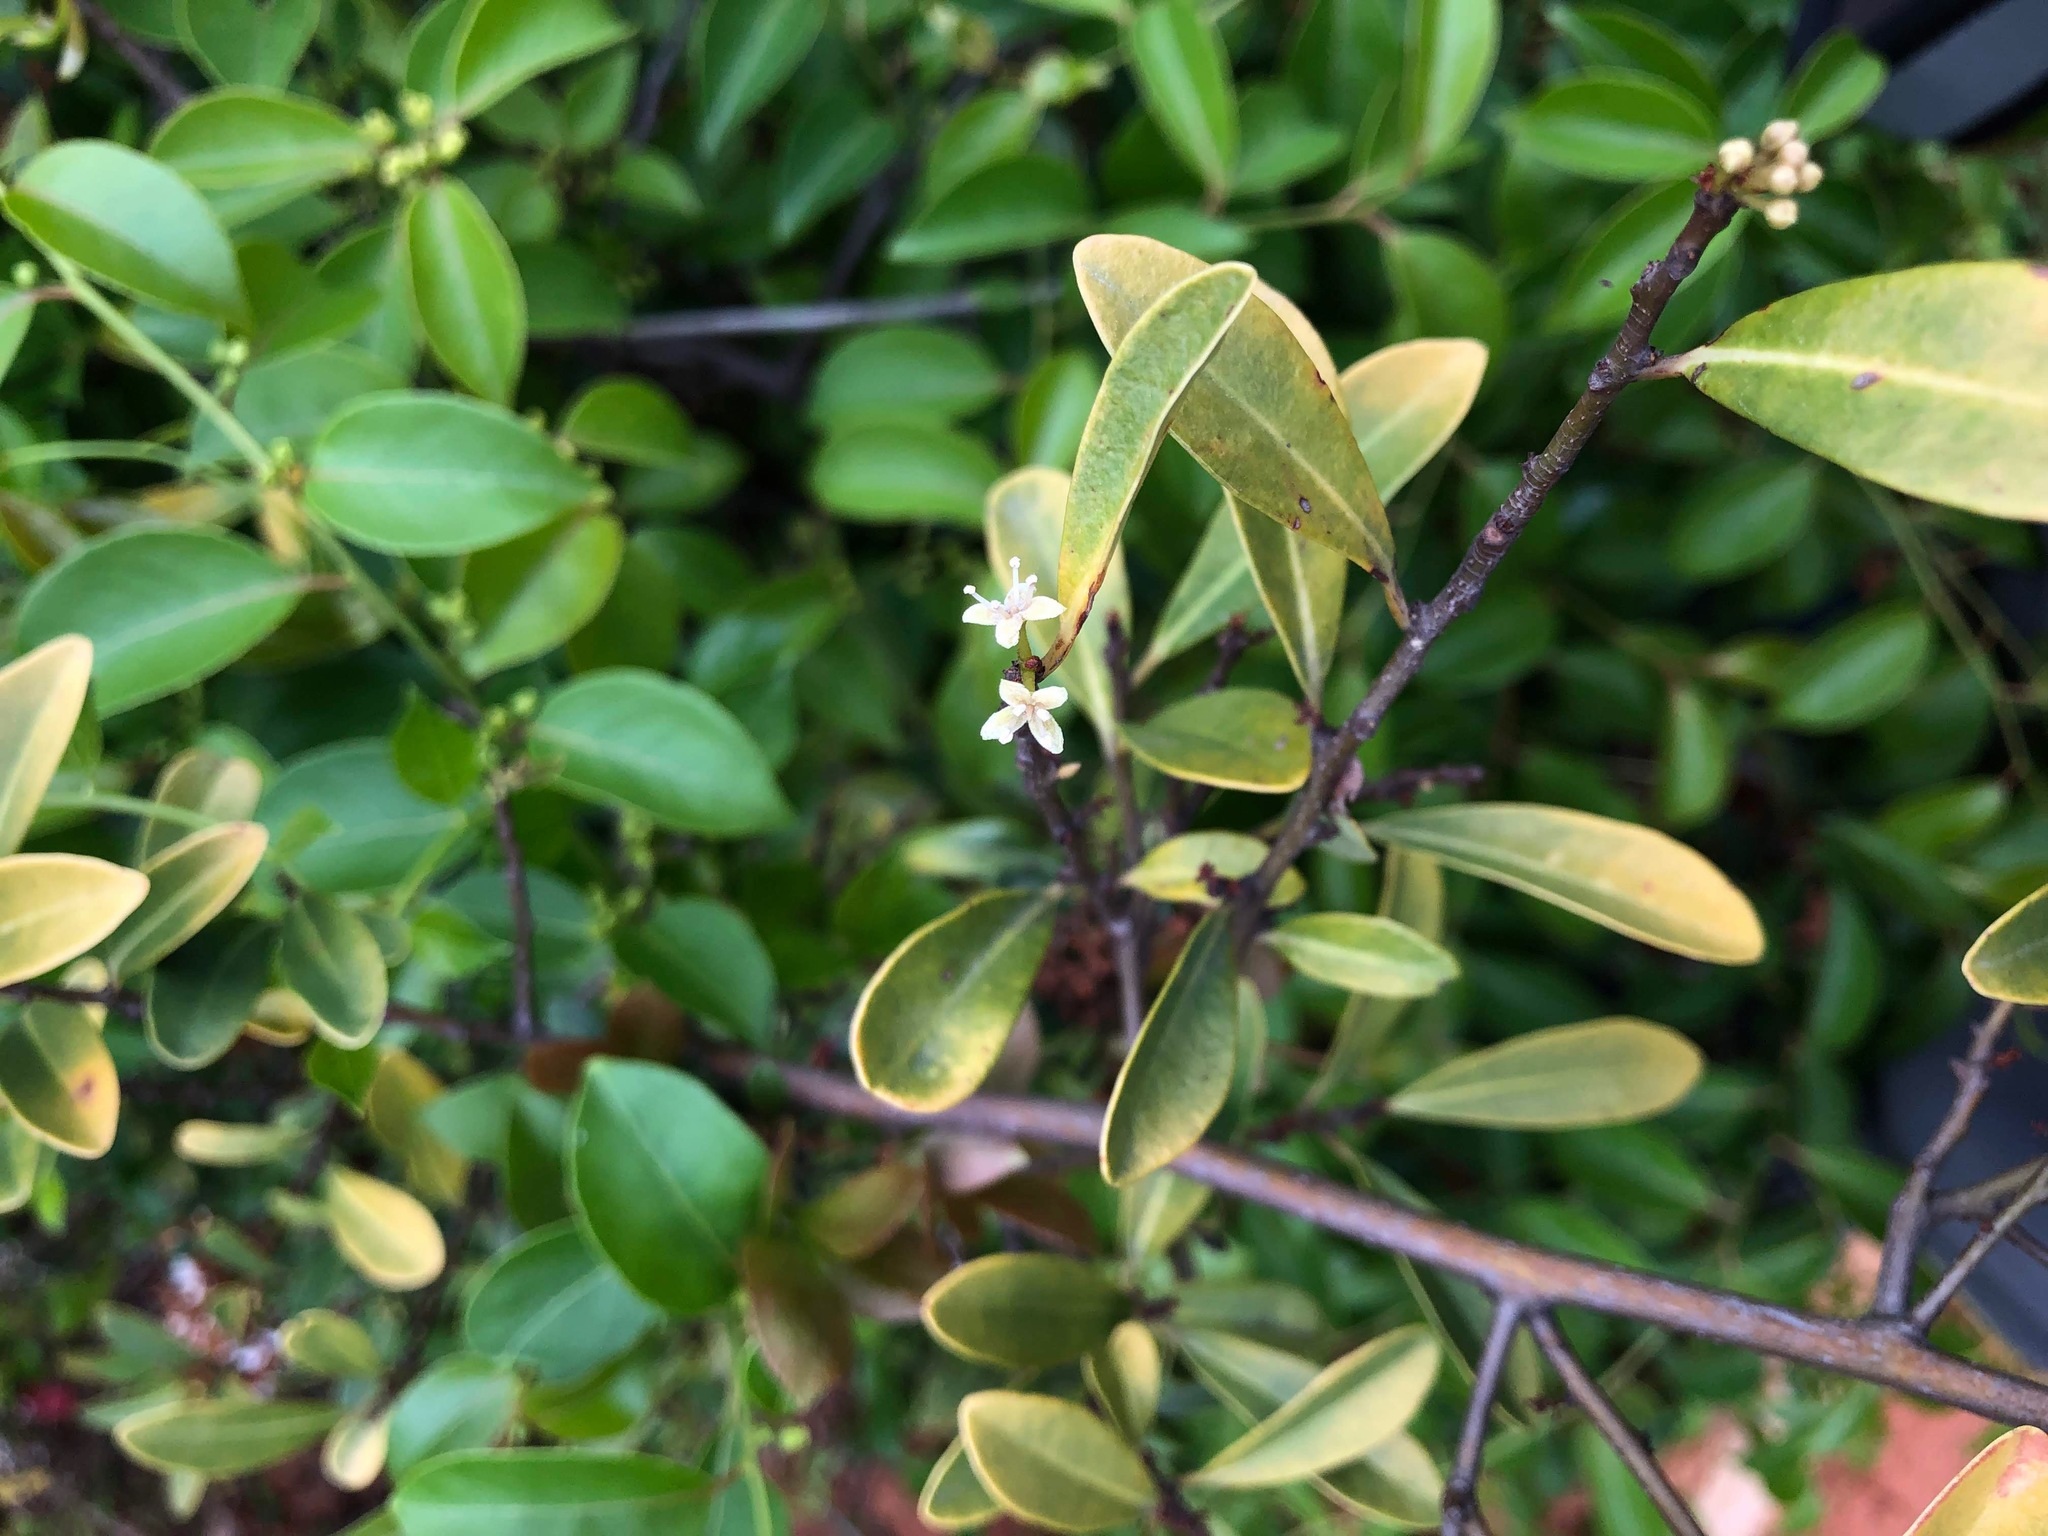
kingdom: Plantae
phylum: Tracheophyta
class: Magnoliopsida
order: Ericales
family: Primulaceae
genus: Embelia
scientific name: Embelia laeta
